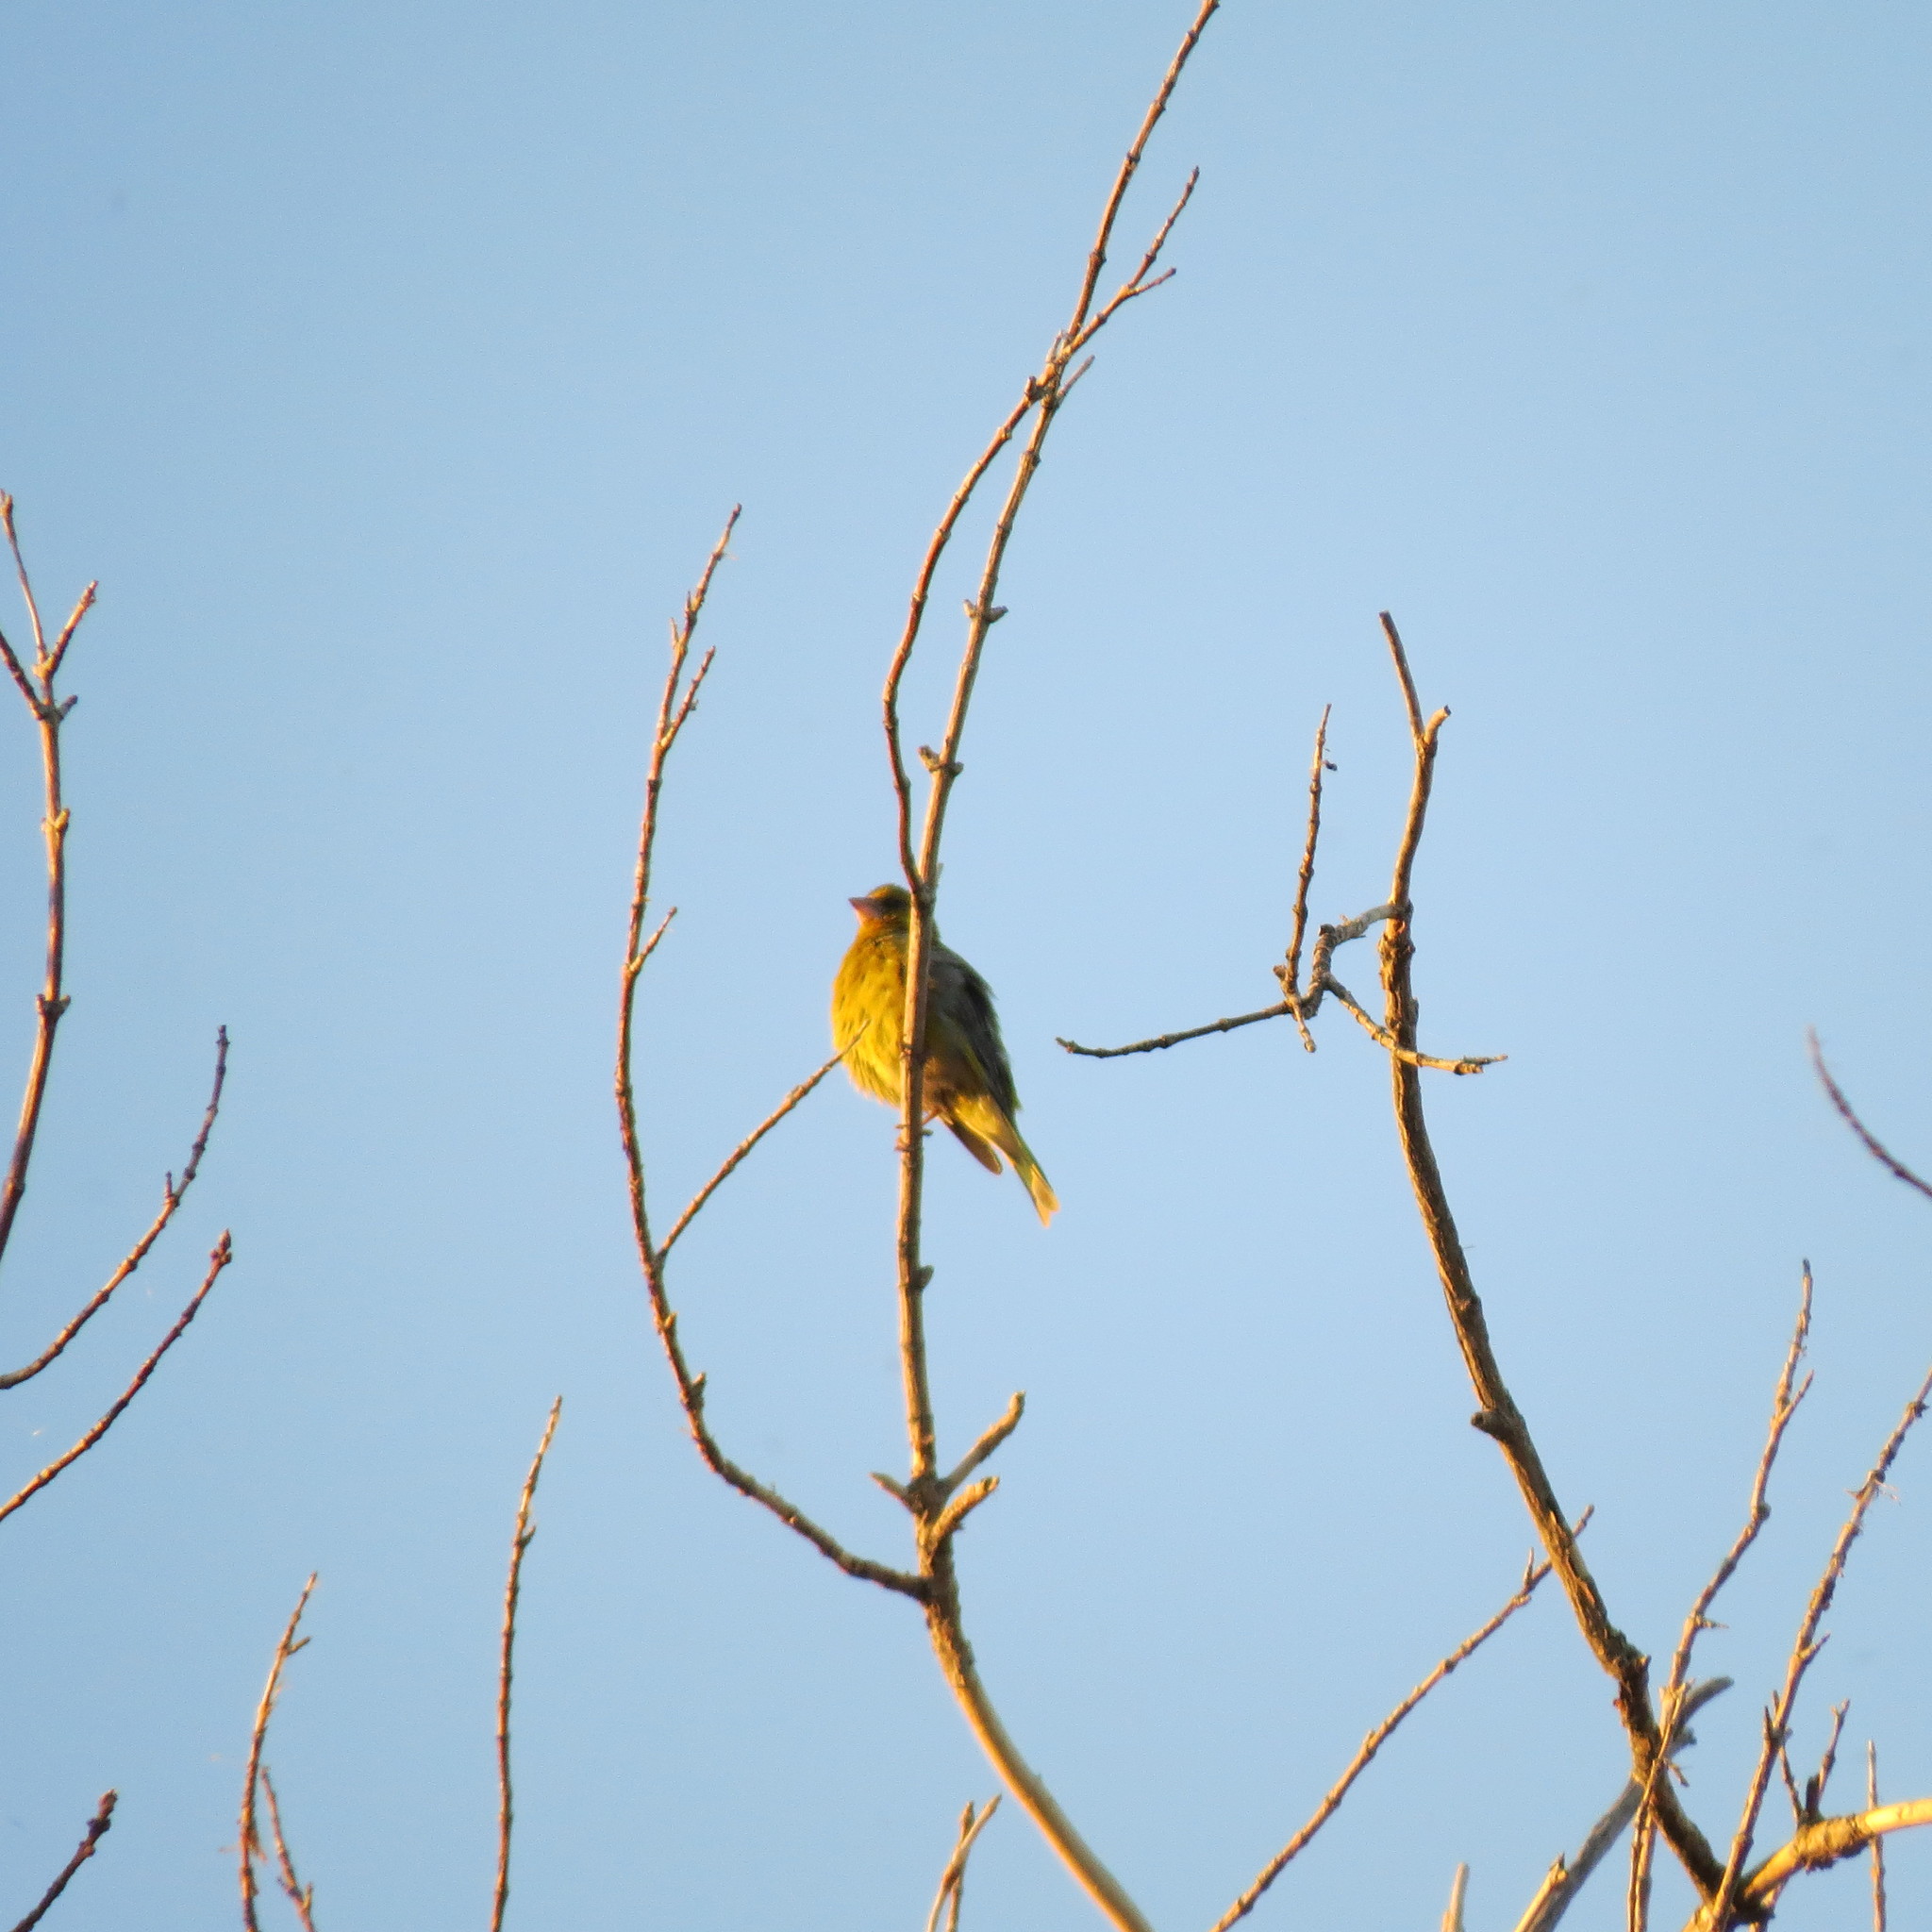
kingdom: Plantae
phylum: Tracheophyta
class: Liliopsida
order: Poales
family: Poaceae
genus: Chloris
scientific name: Chloris chloris
